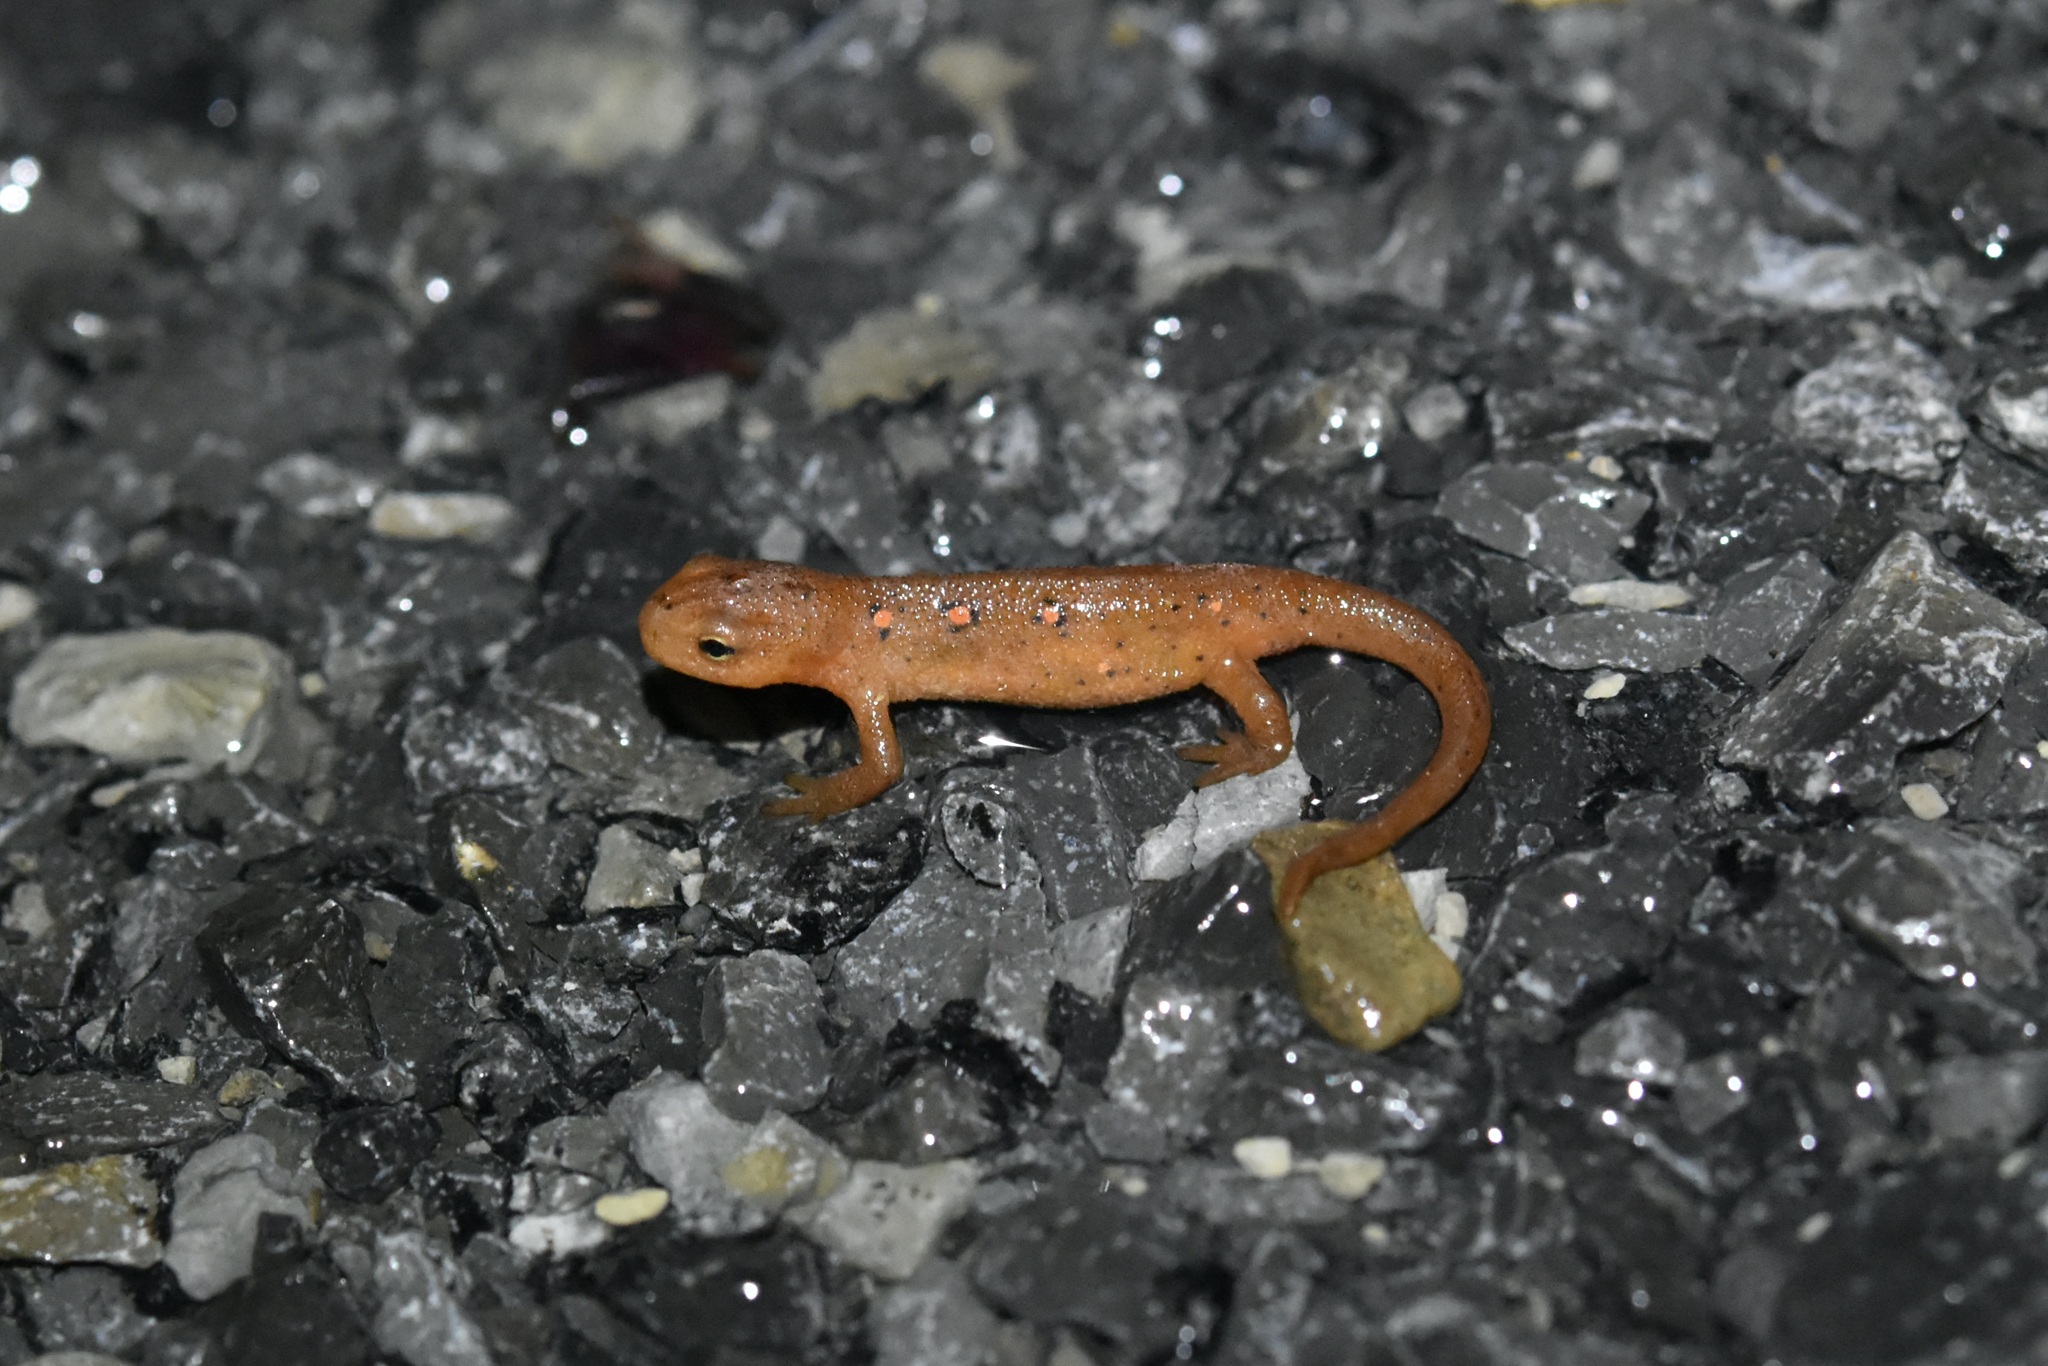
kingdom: Animalia
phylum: Chordata
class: Amphibia
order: Caudata
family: Salamandridae
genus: Notophthalmus
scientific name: Notophthalmus viridescens
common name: Eastern newt
